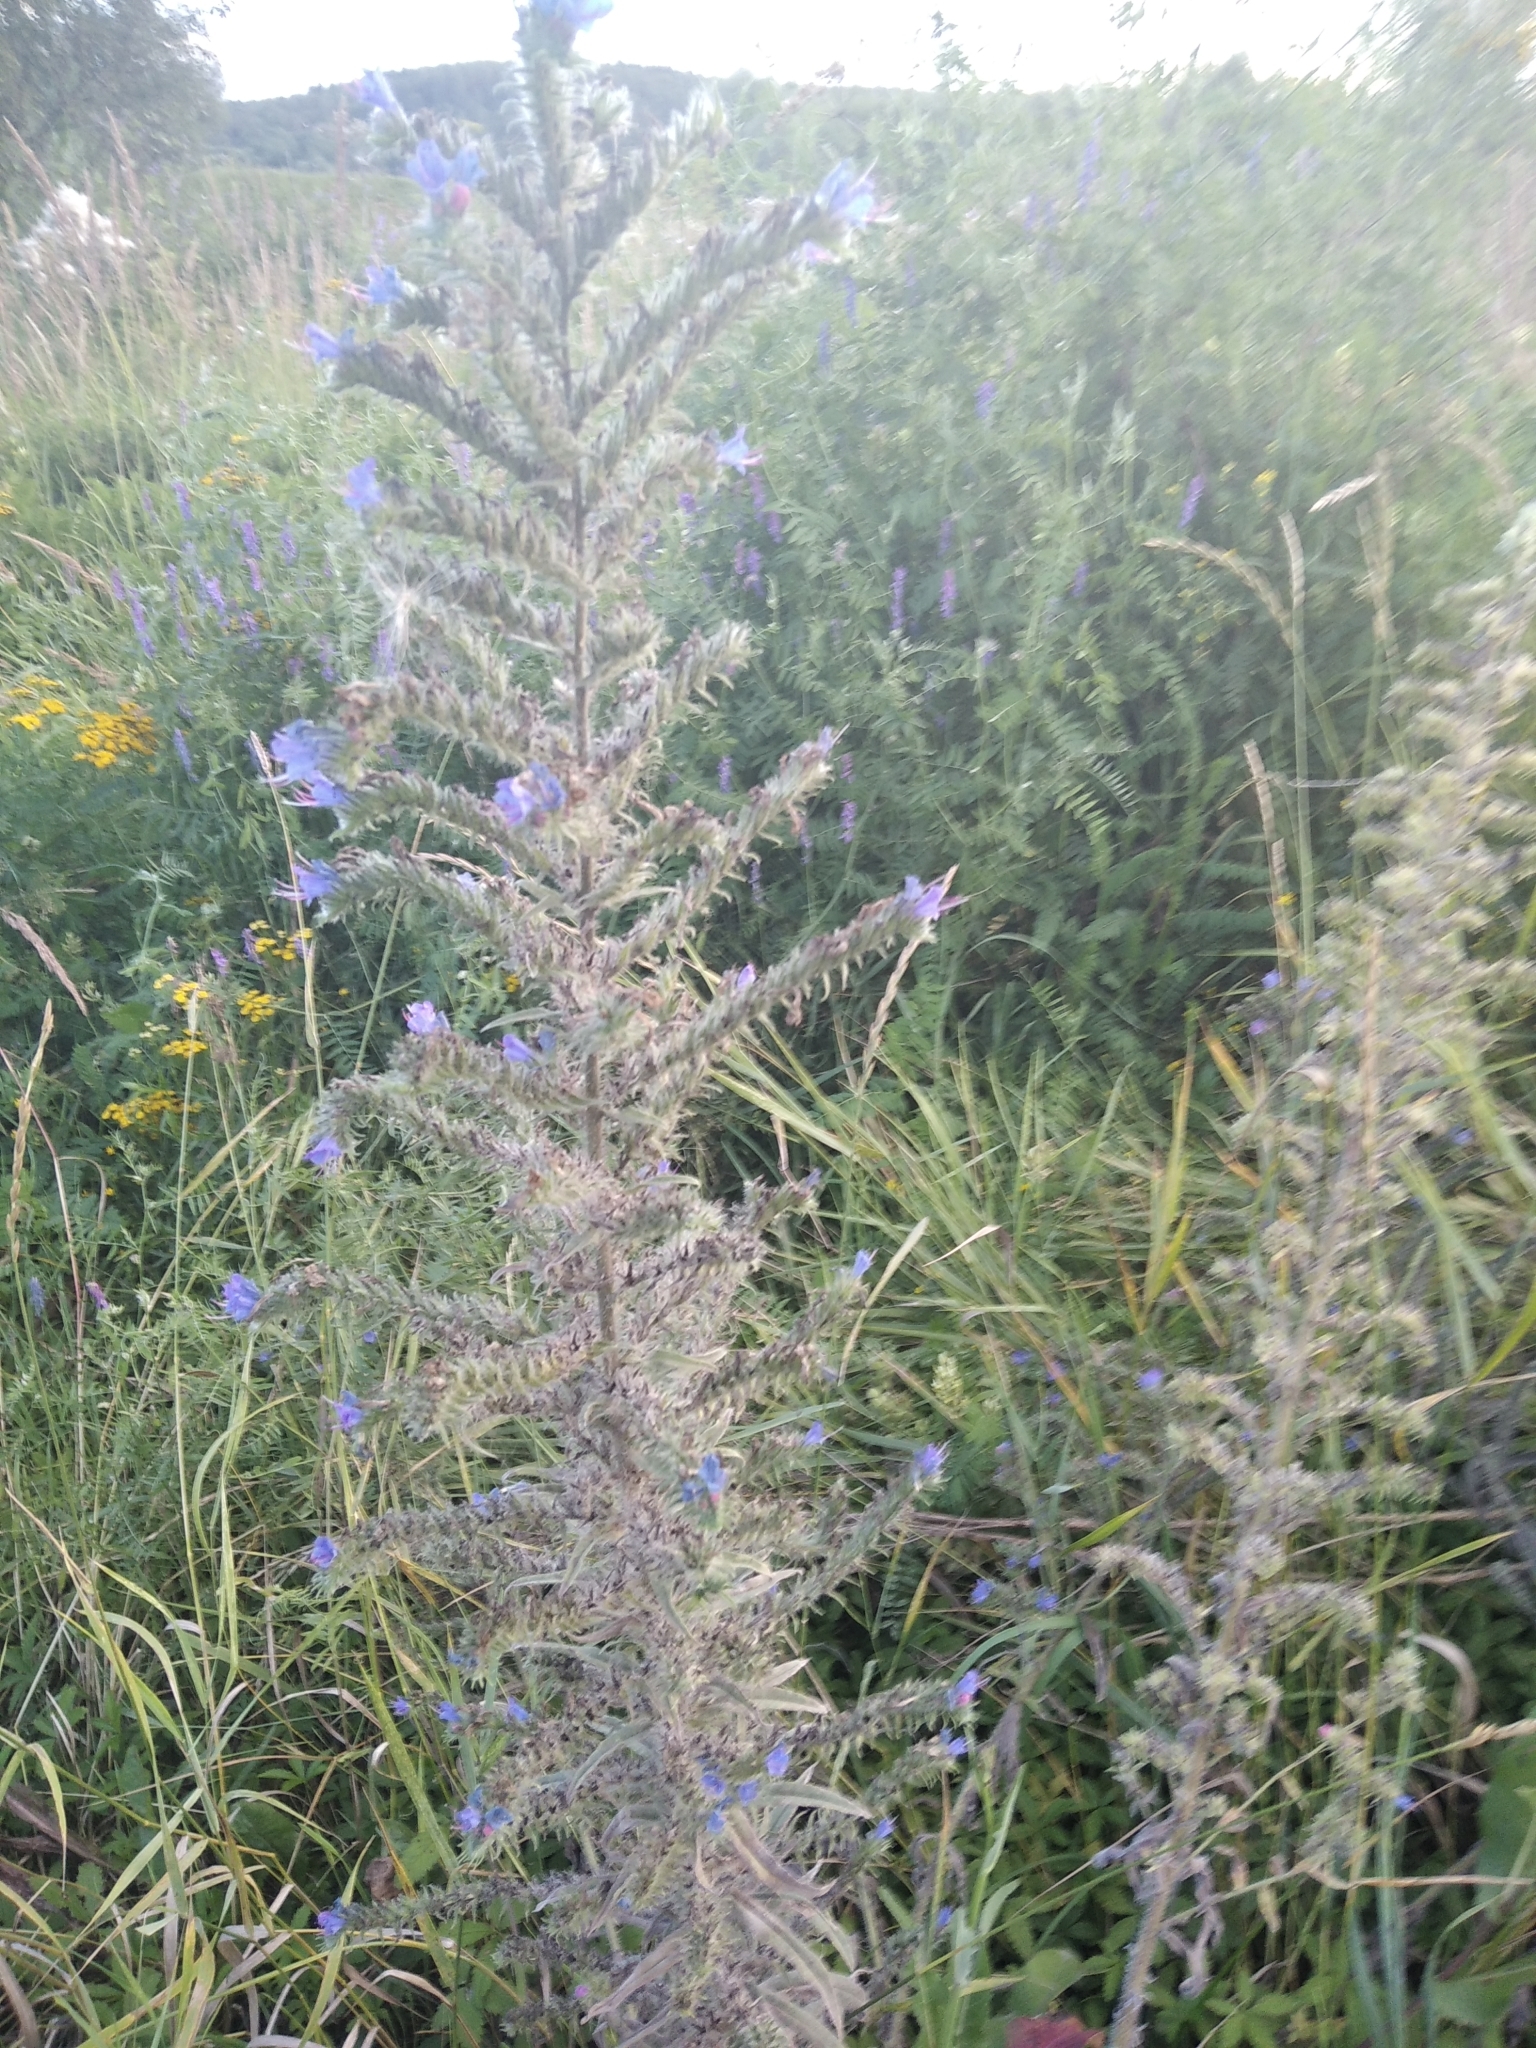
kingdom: Plantae
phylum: Tracheophyta
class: Magnoliopsida
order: Boraginales
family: Boraginaceae
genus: Echium
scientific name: Echium vulgare
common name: Common viper's bugloss
